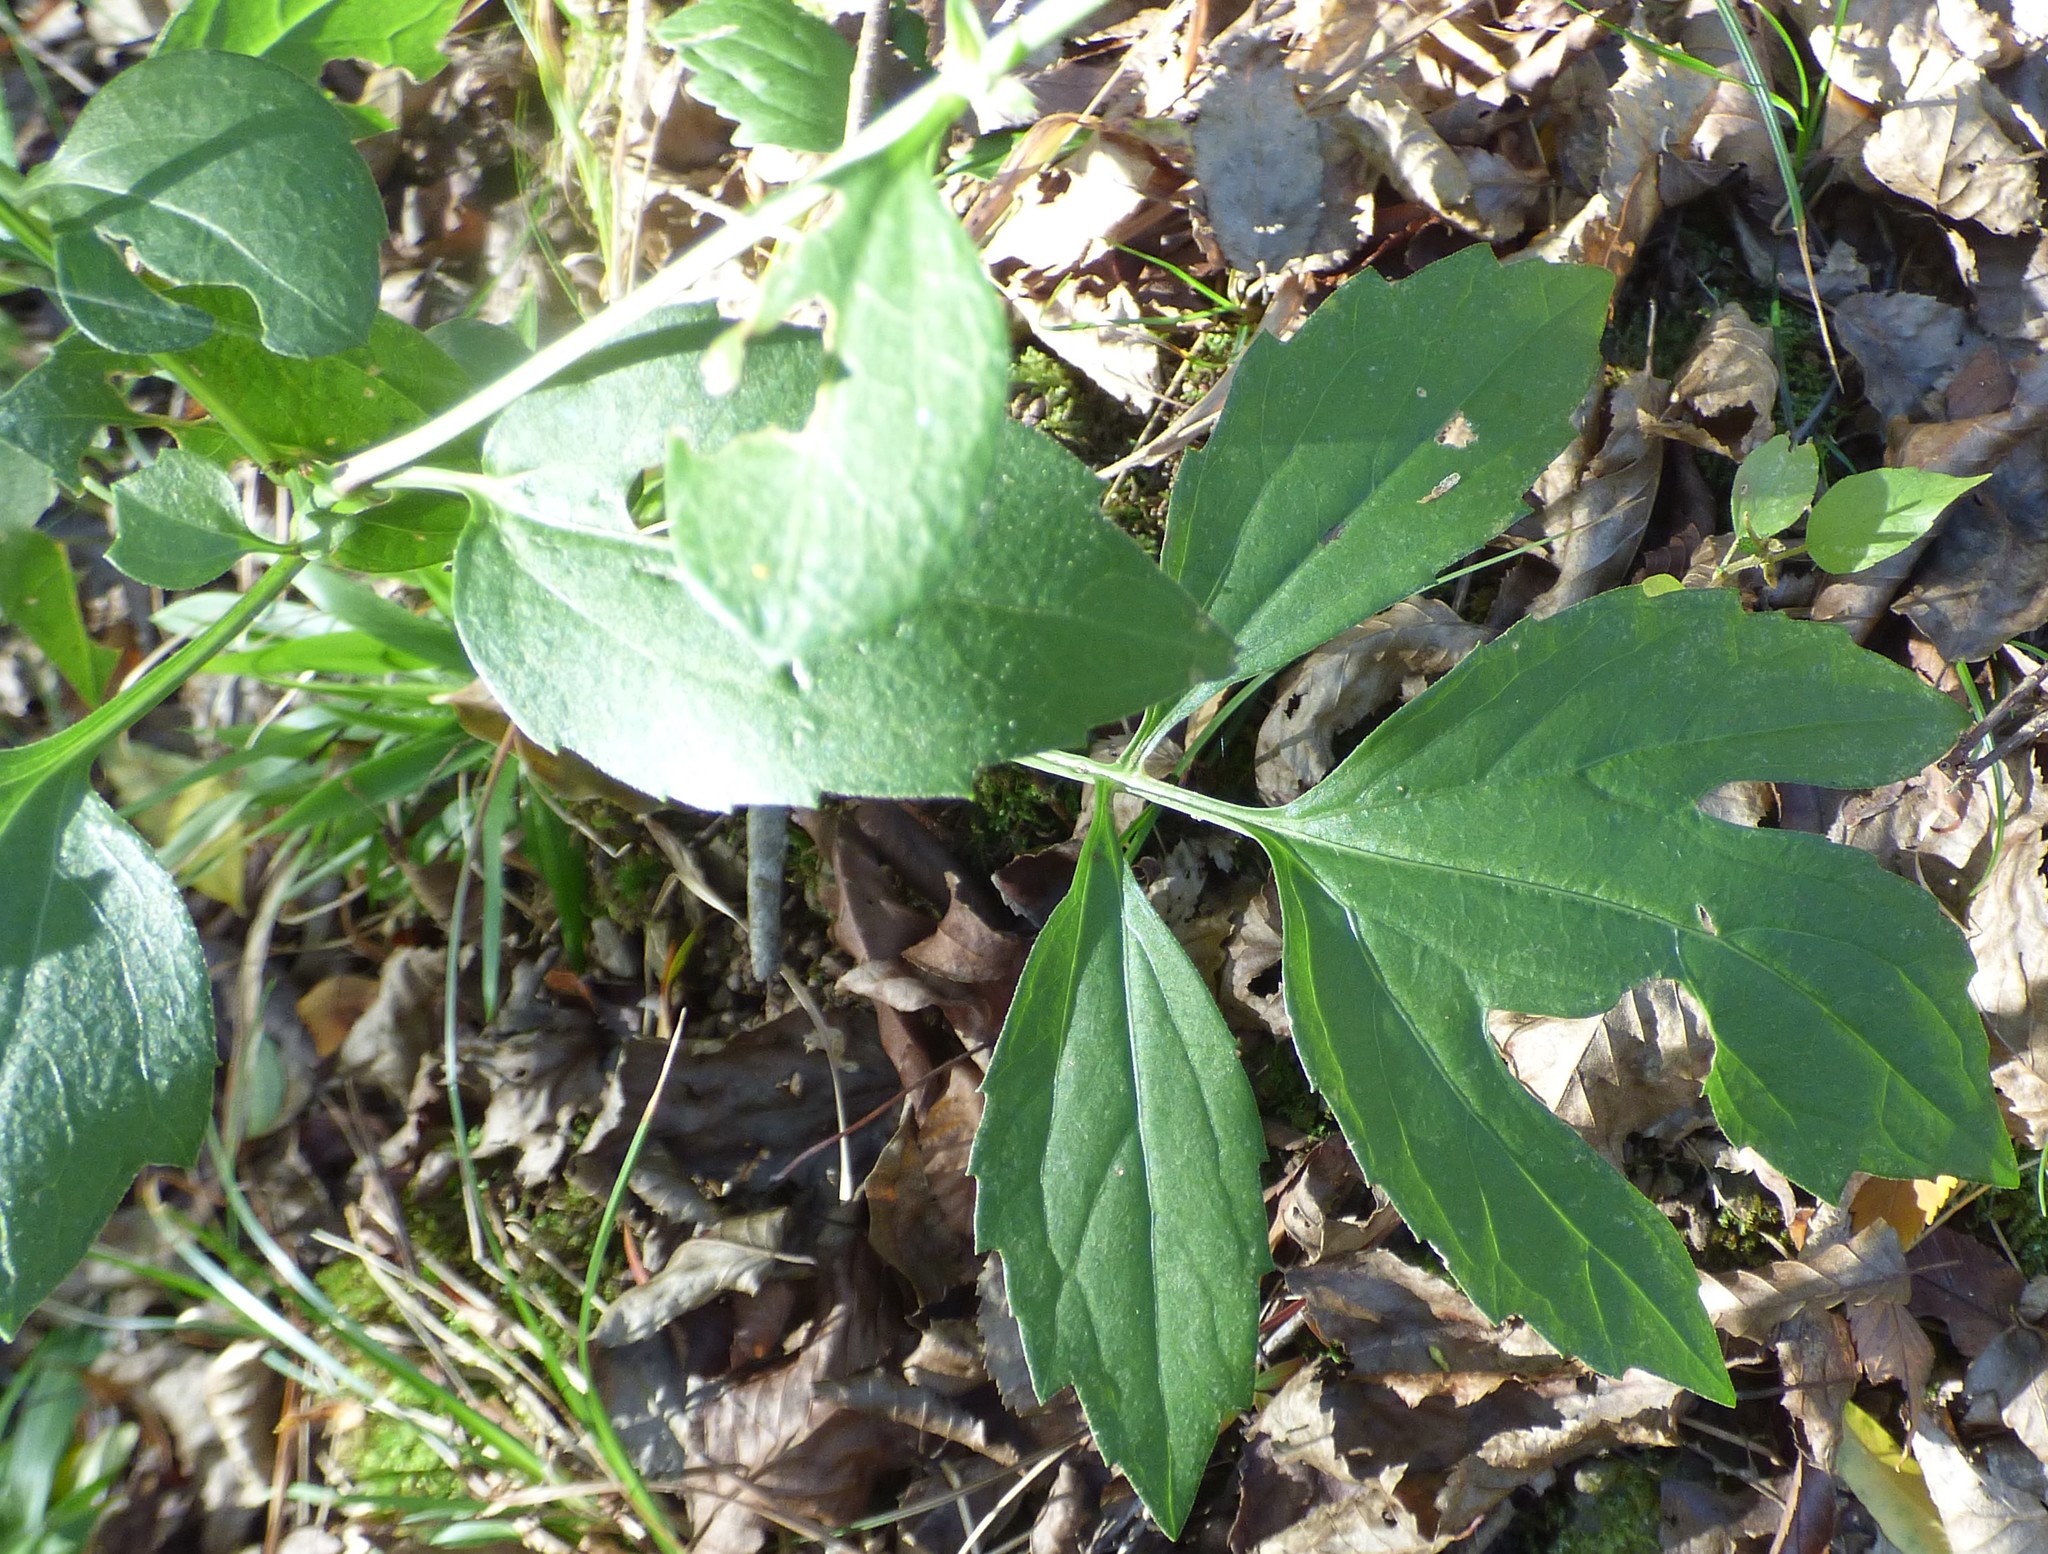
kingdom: Plantae
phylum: Tracheophyta
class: Magnoliopsida
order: Asterales
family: Asteraceae
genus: Rudbeckia
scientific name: Rudbeckia laciniata
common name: Coneflower
